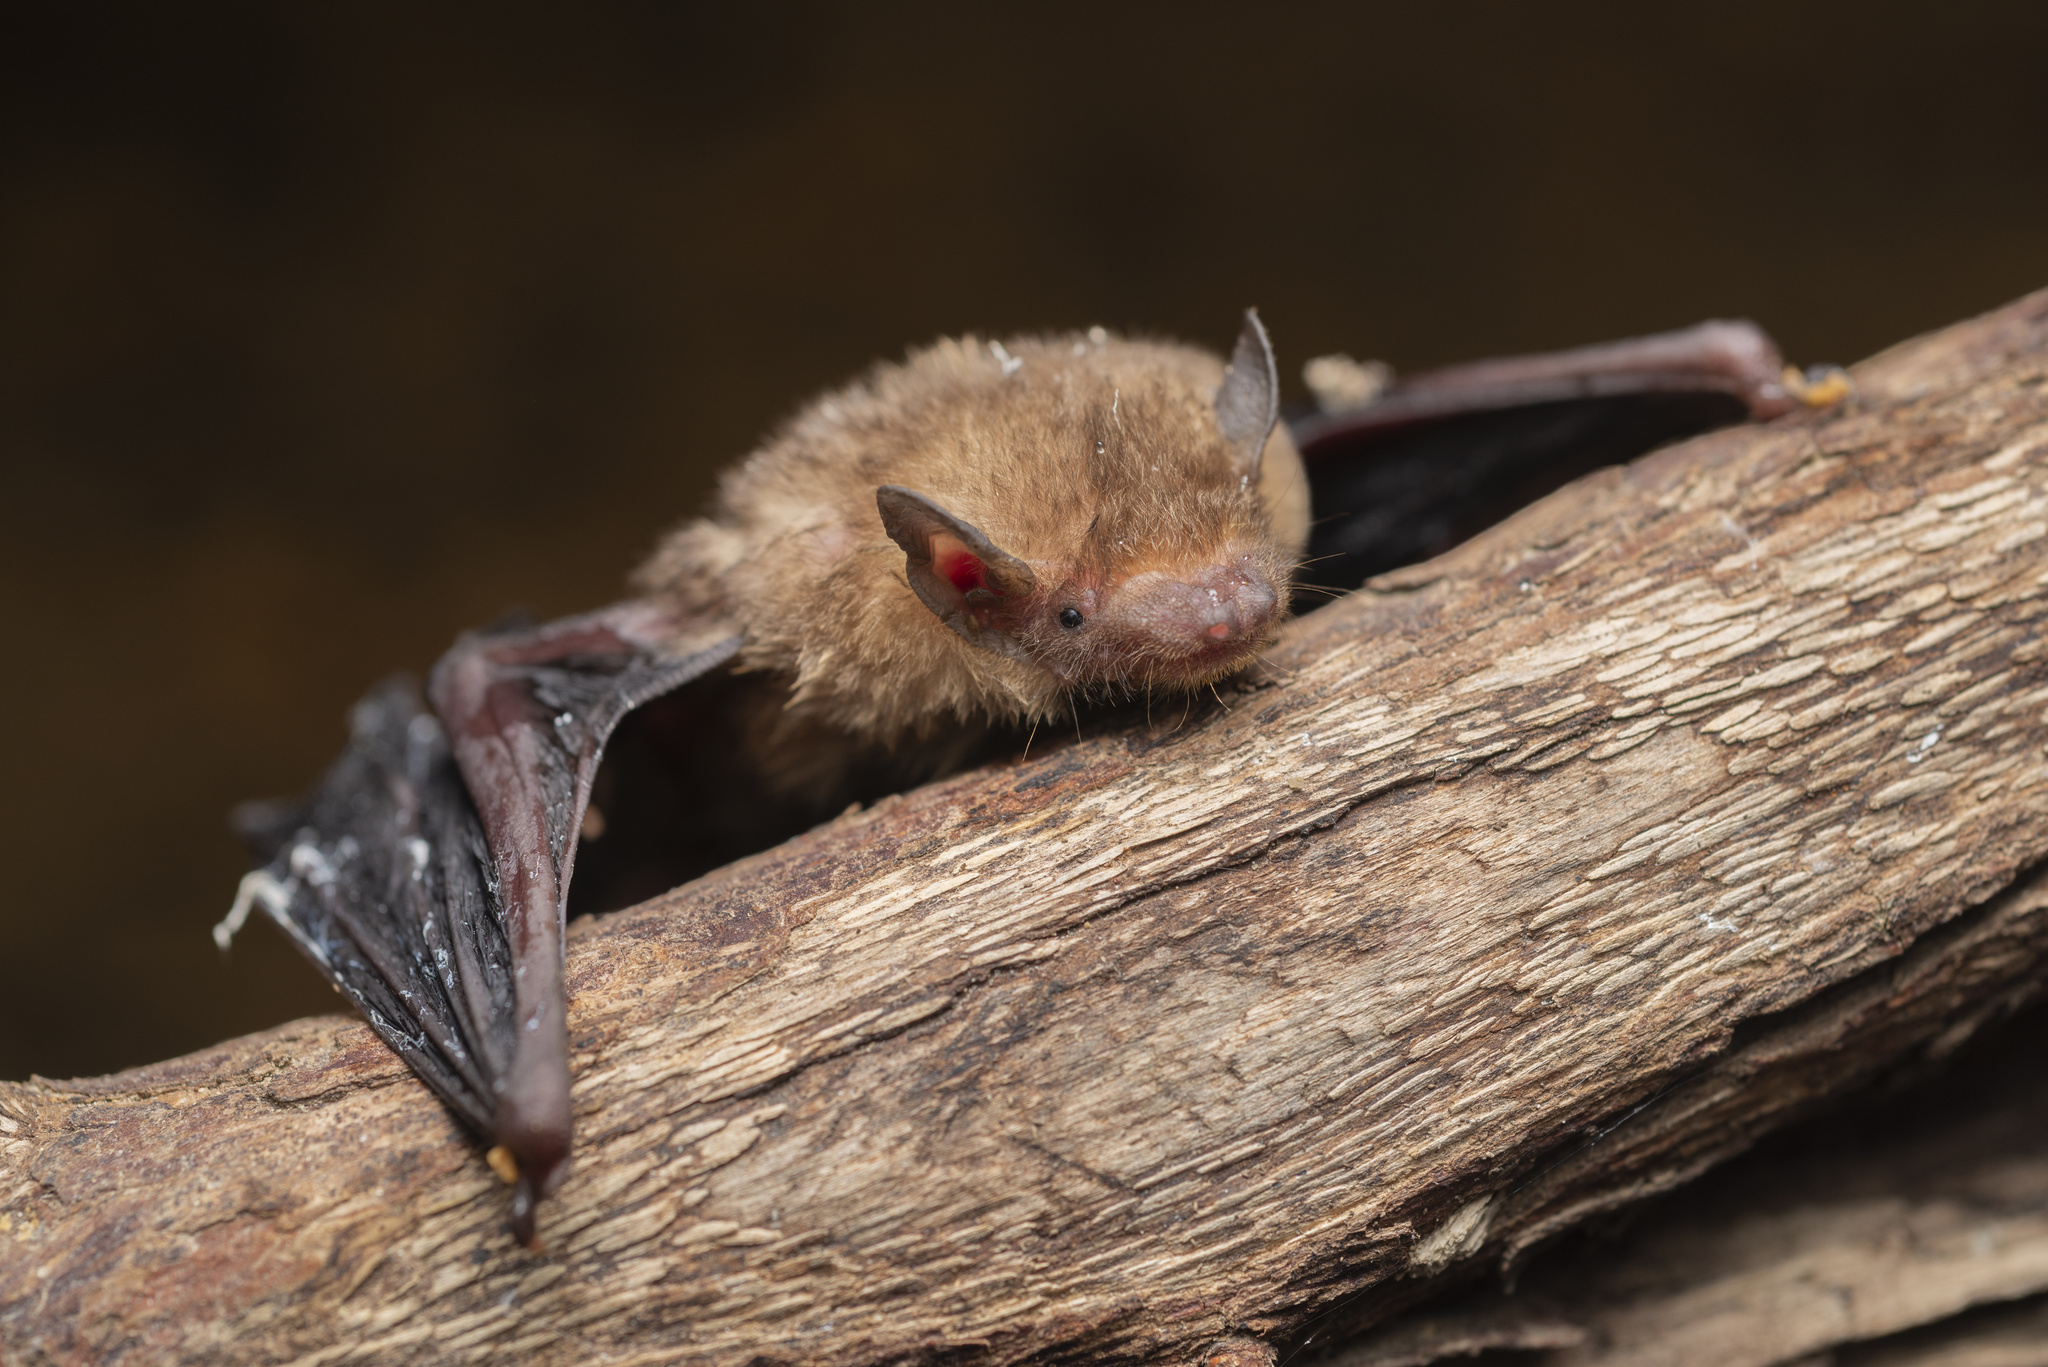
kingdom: Animalia
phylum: Chordata
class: Mammalia
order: Chiroptera
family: Vespertilionidae
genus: Tylonycteris
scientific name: Tylonycteris fulvida
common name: Amber bamboo bat
